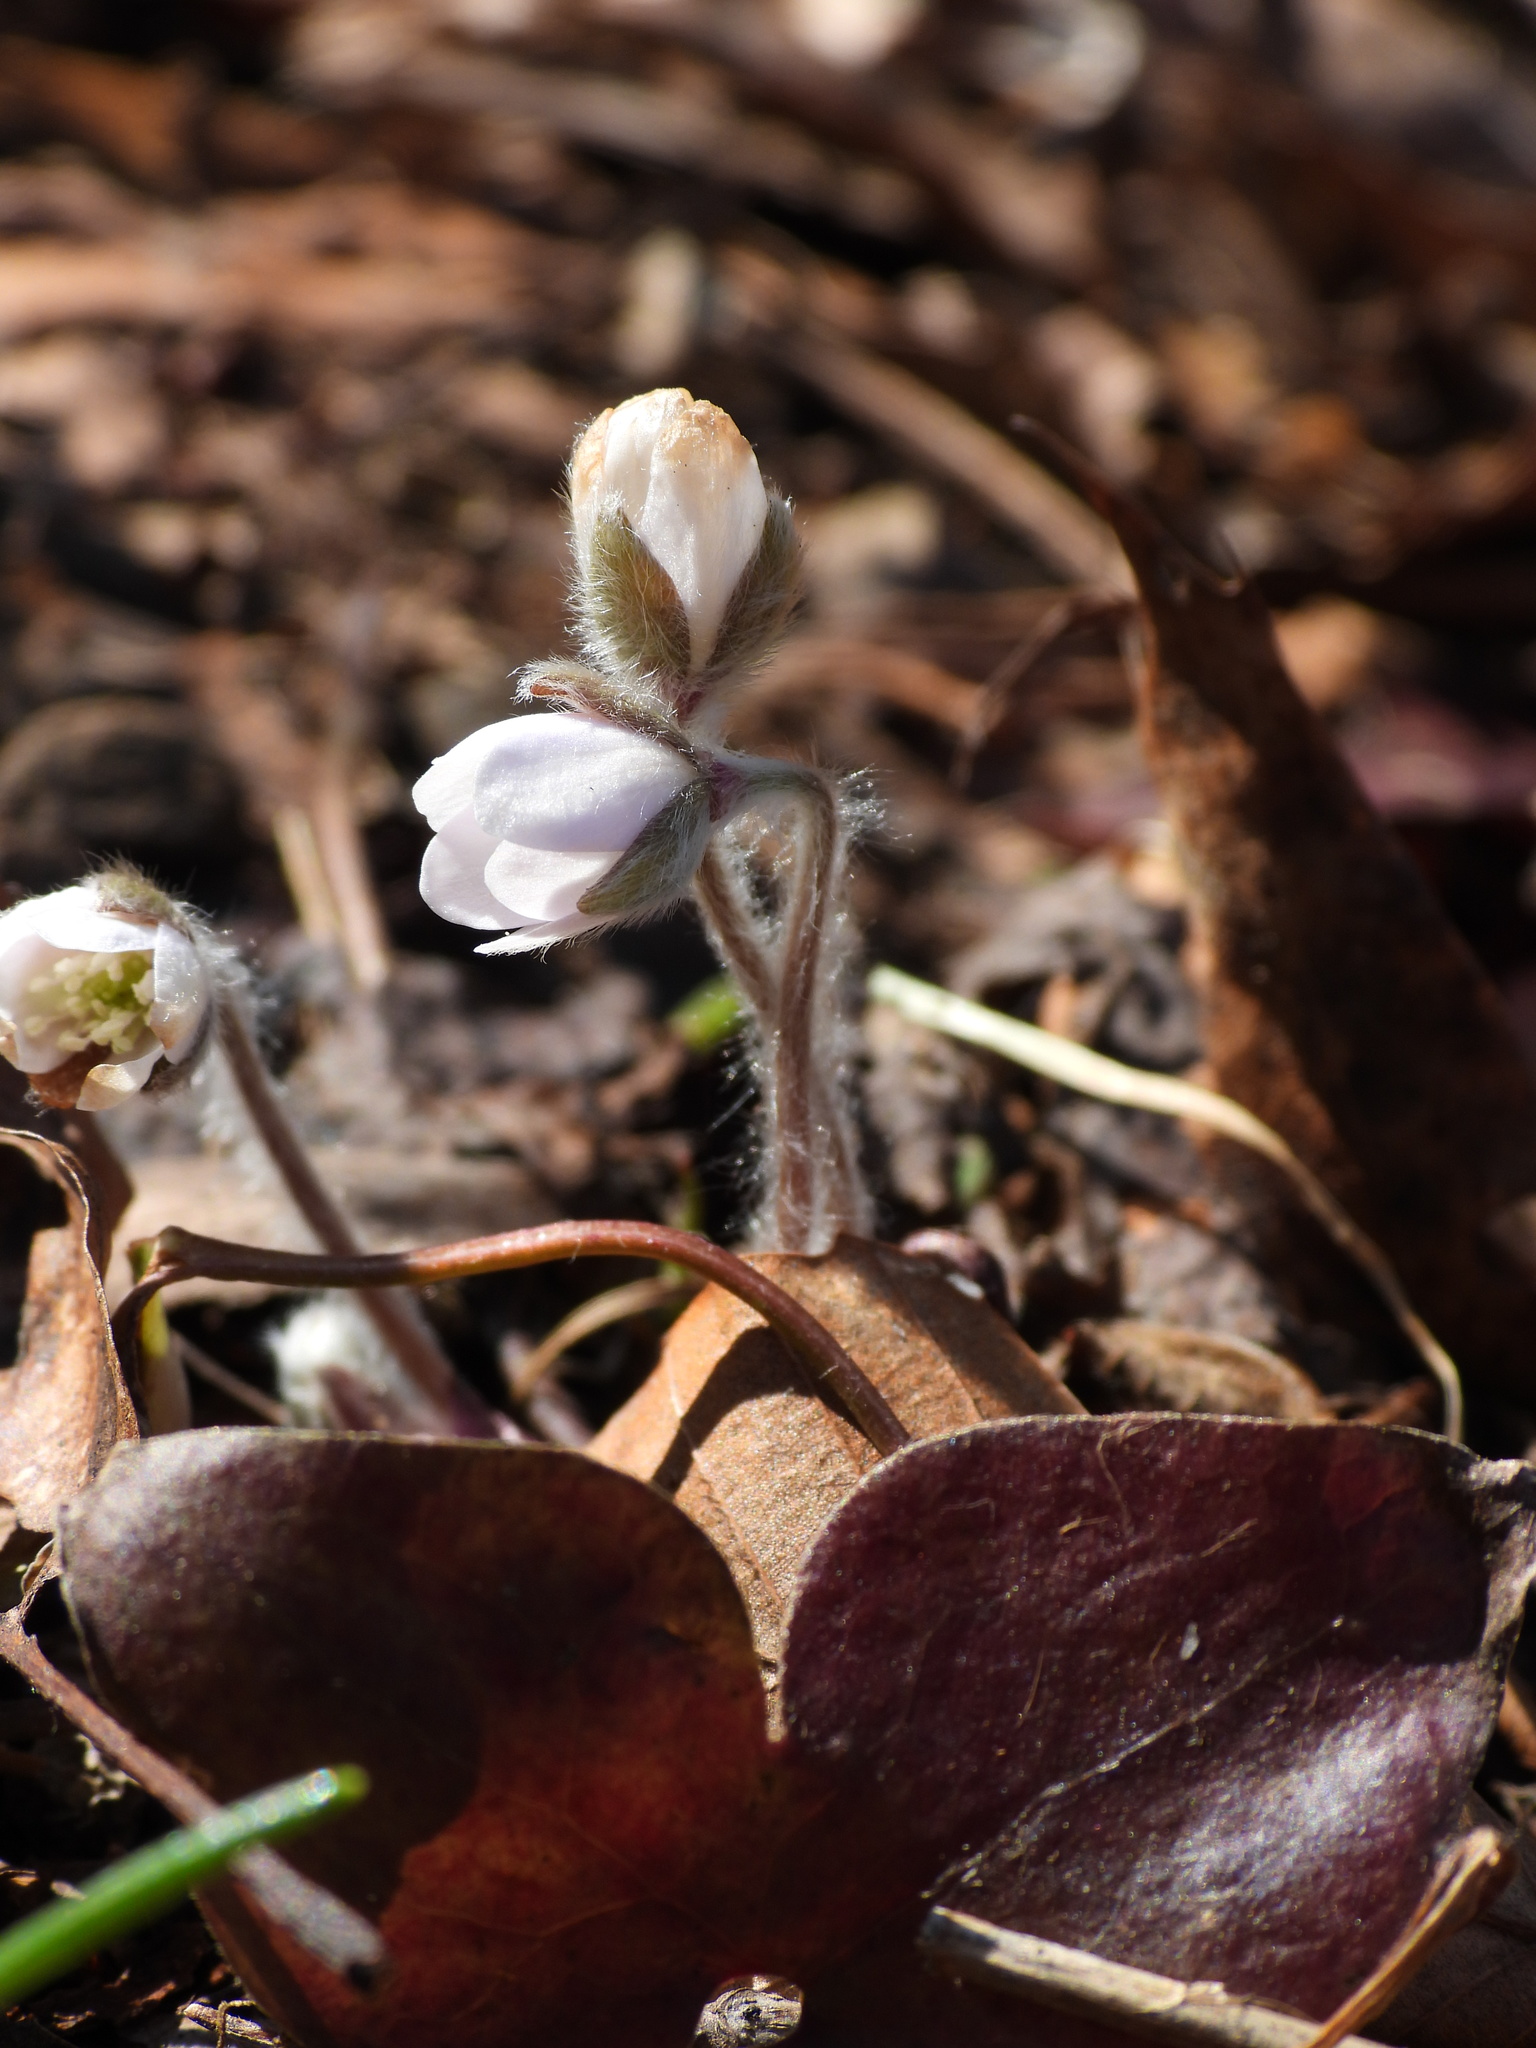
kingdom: Plantae
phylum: Tracheophyta
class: Magnoliopsida
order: Ranunculales
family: Ranunculaceae
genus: Hepatica
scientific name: Hepatica acutiloba
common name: Sharp-lobed hepatica
